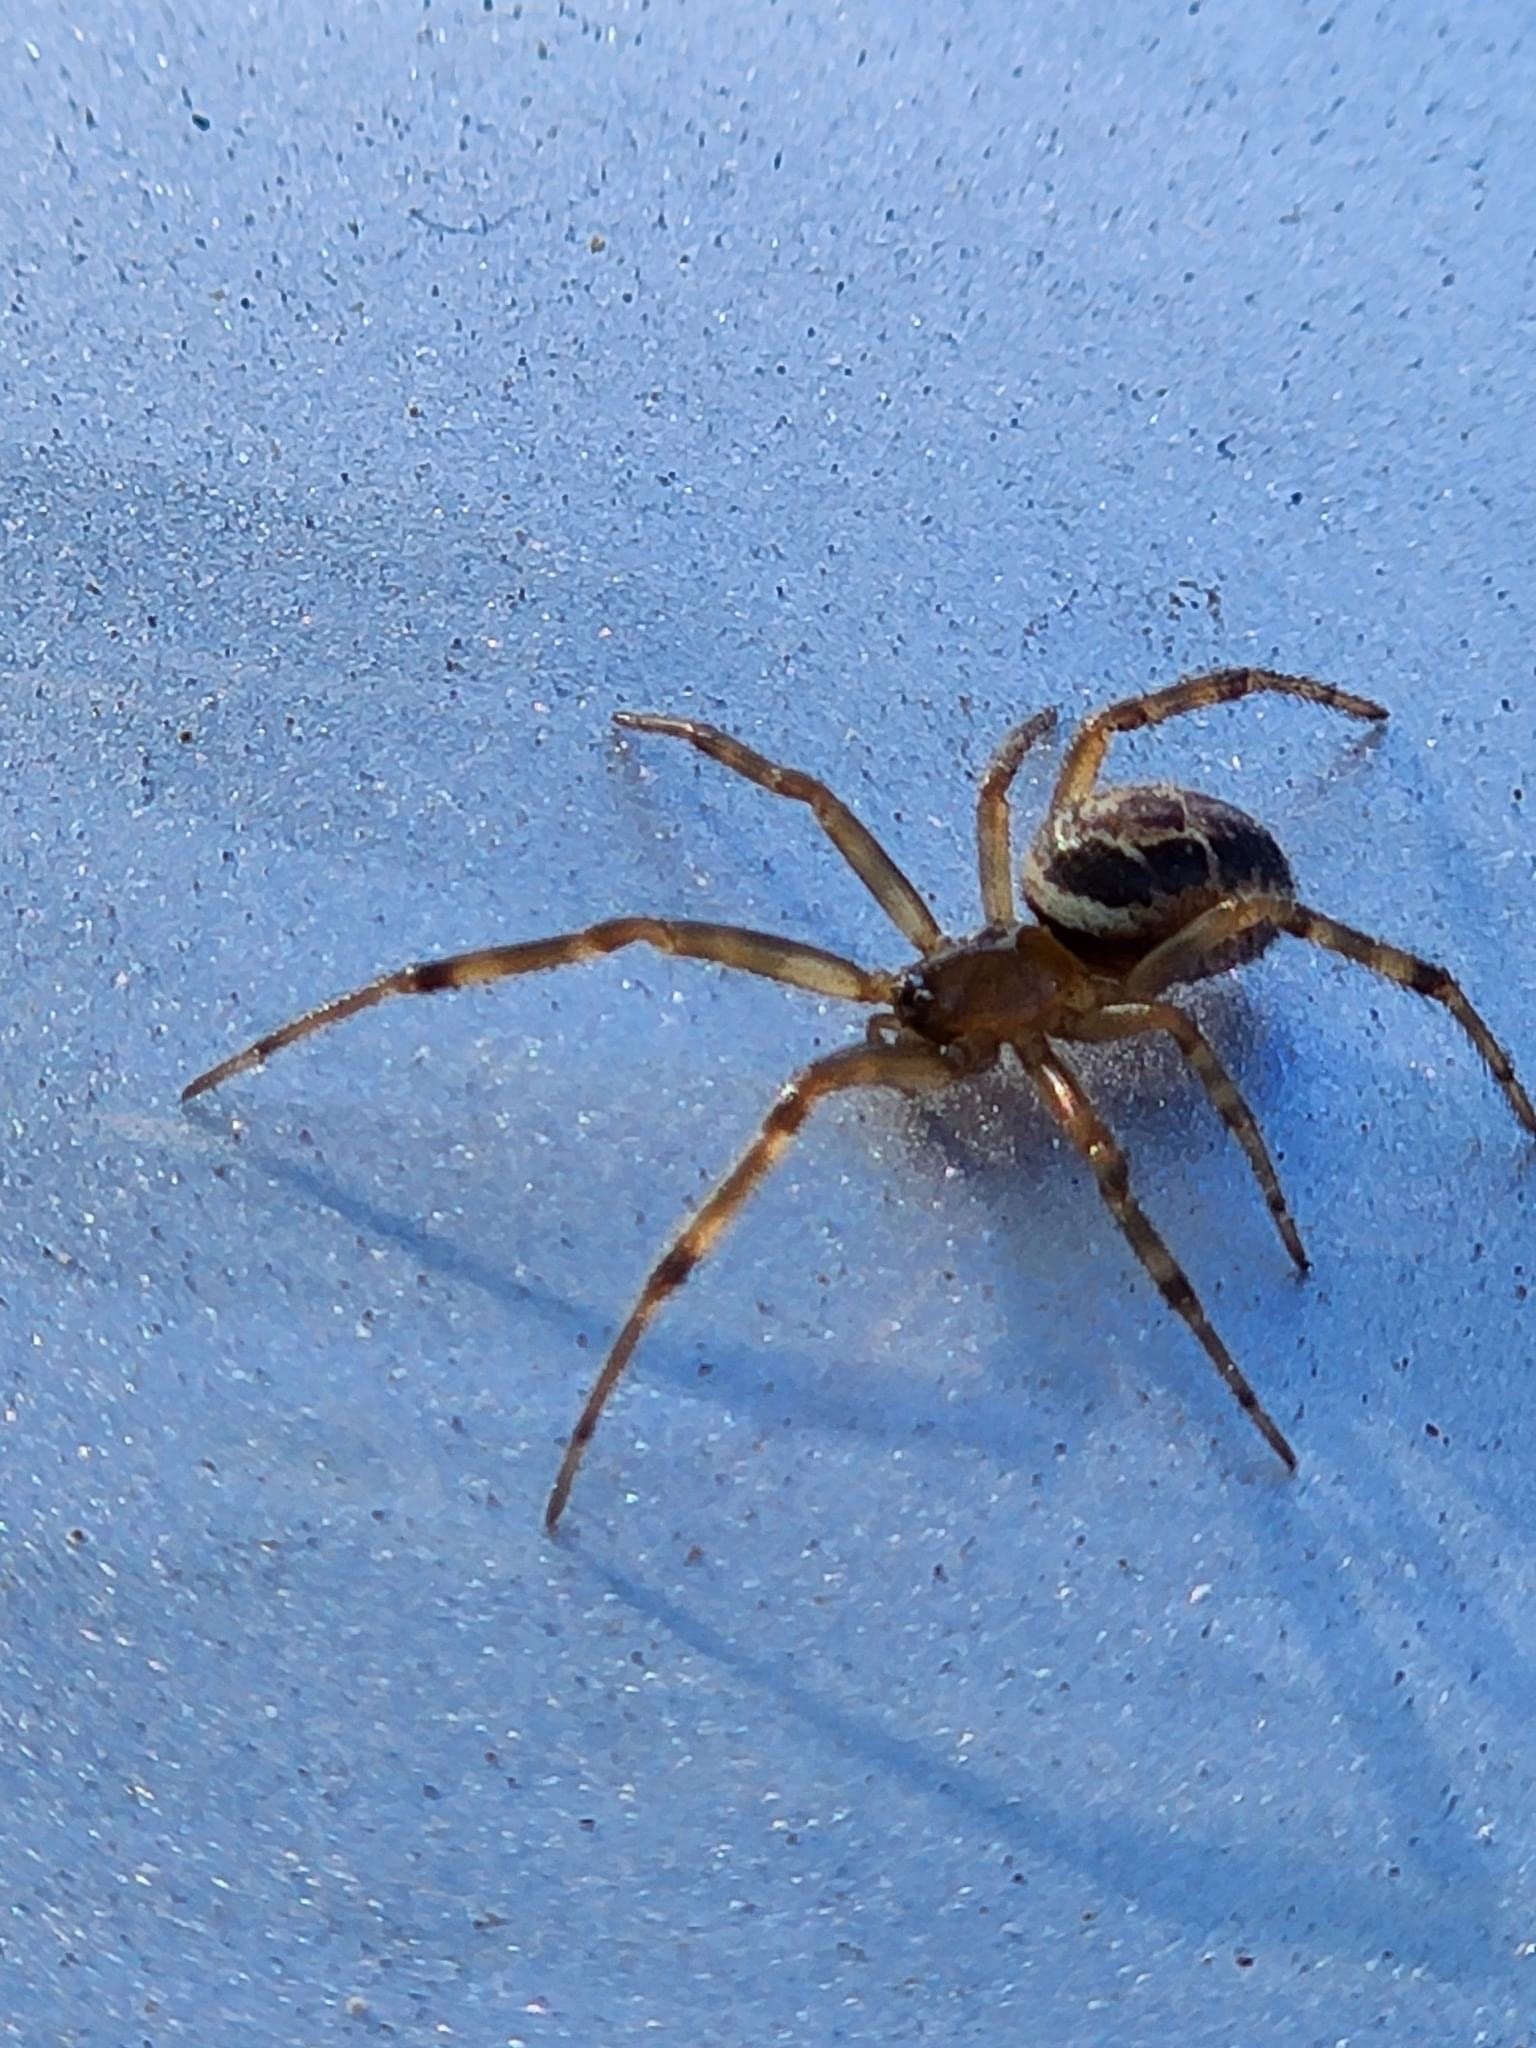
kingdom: Animalia
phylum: Arthropoda
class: Arachnida
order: Araneae
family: Theridiidae
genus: Steatoda
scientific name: Steatoda nobilis
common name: Cobweb weaver
